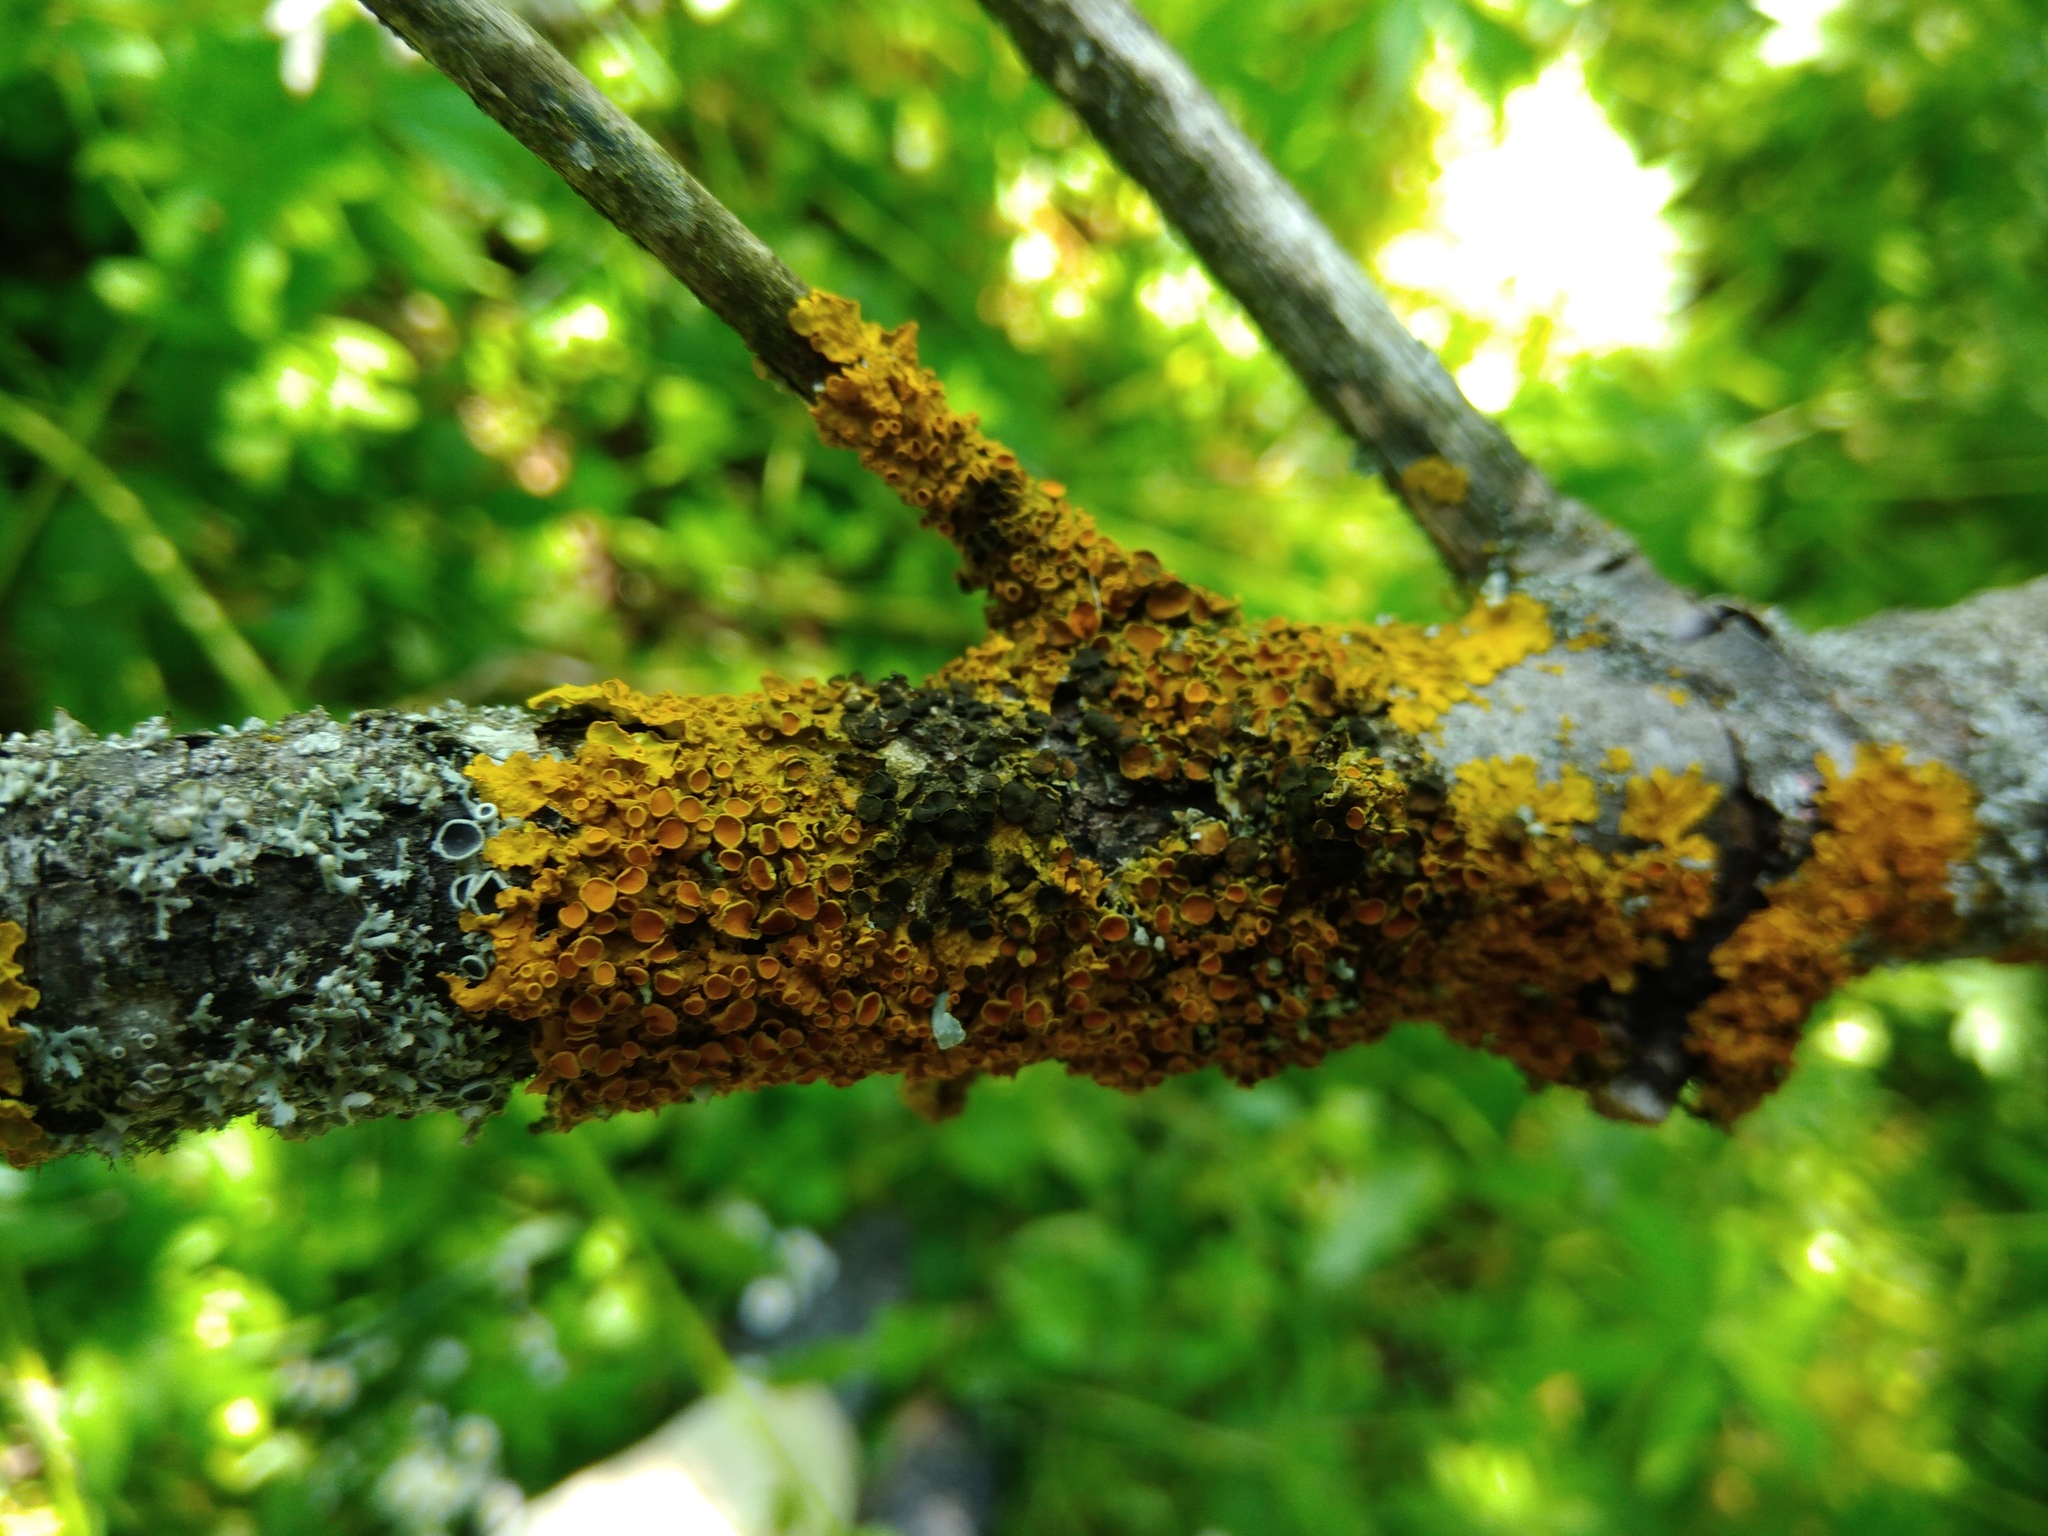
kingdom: Fungi
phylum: Ascomycota
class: Dothideomycetes
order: Mycosphaerellales
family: Teratosphaeriaceae
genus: Xanthoriicola
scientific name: Xanthoriicola physciae
